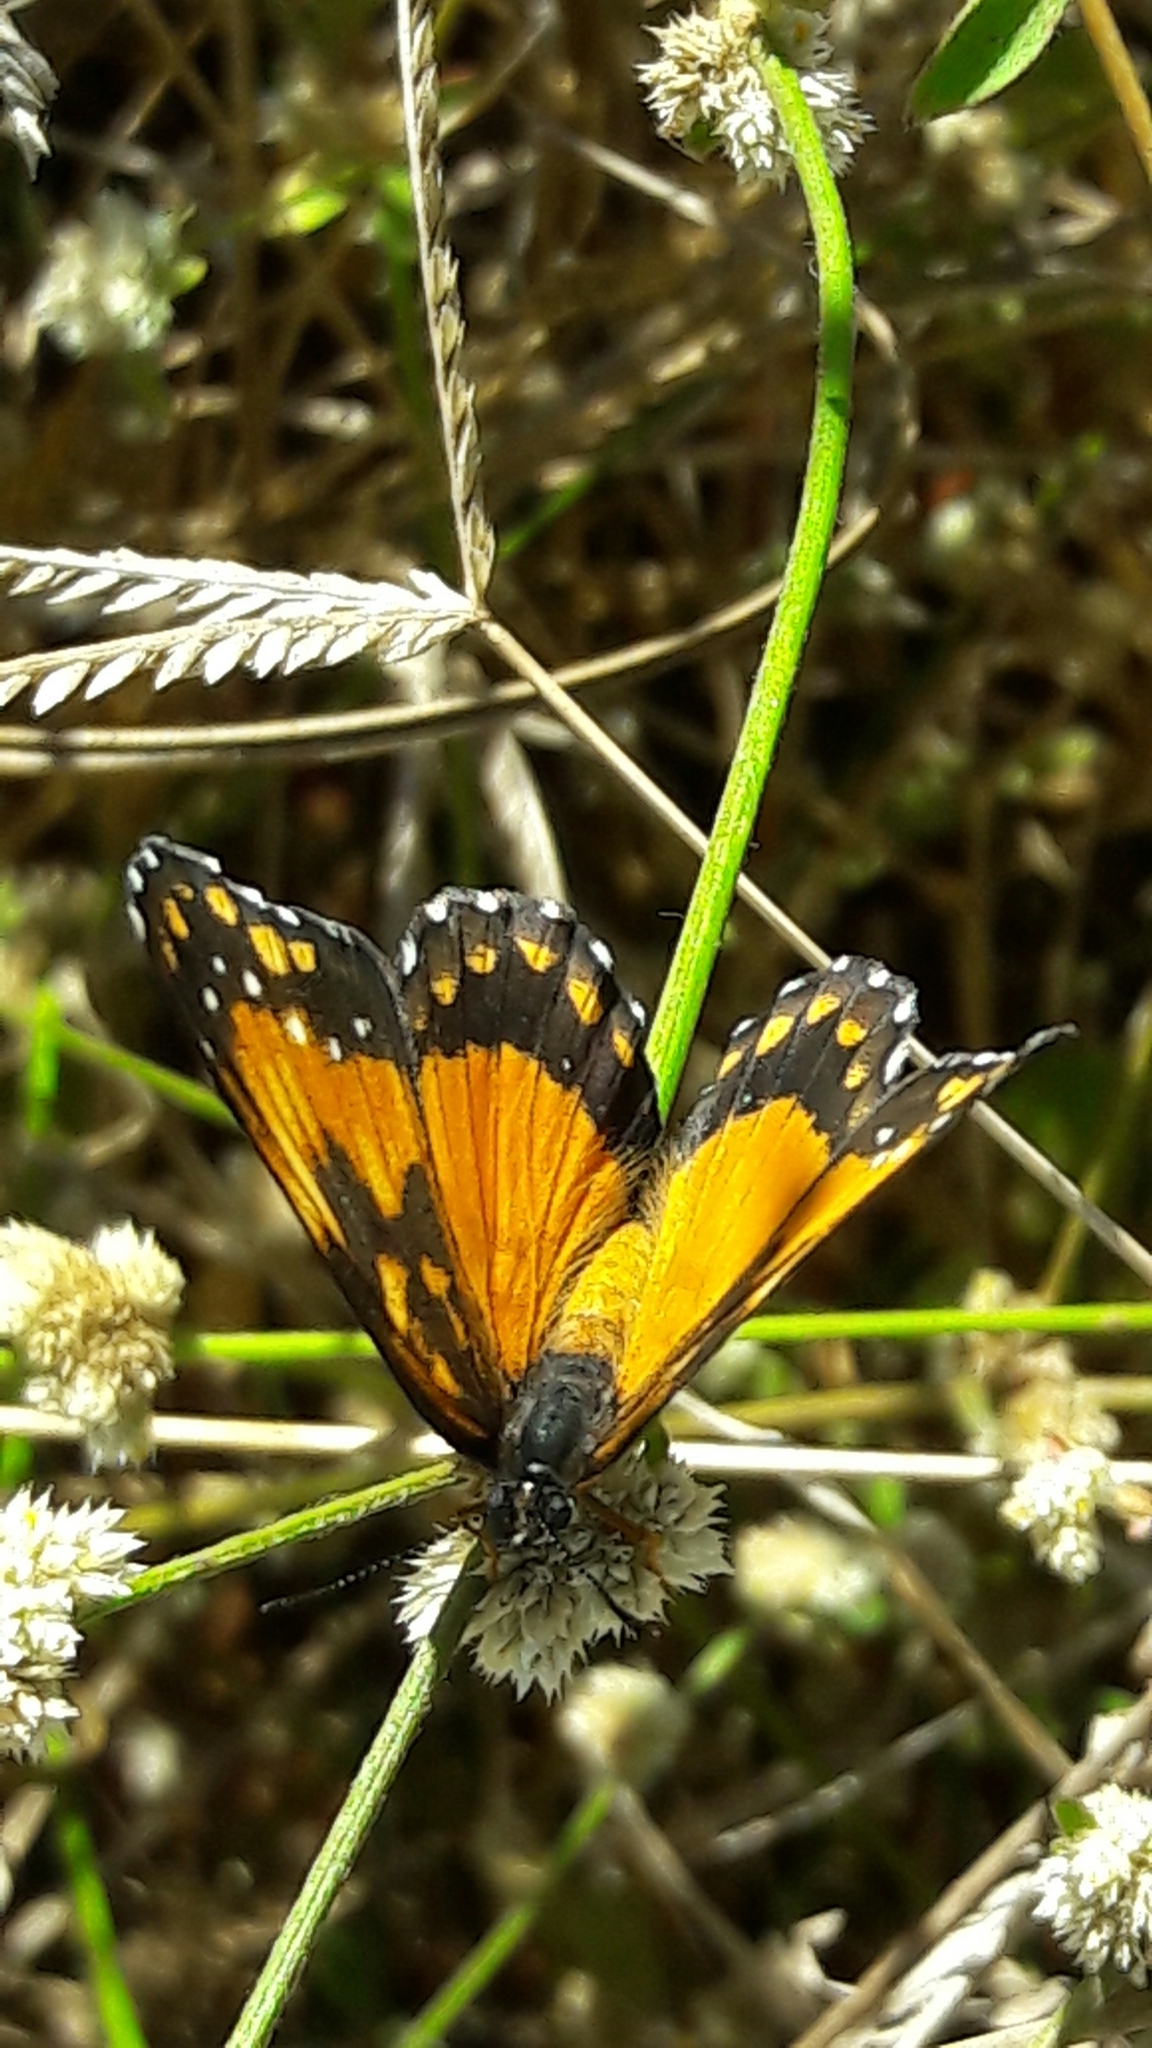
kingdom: Animalia
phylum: Arthropoda
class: Insecta
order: Lepidoptera
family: Nymphalidae
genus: Chlosyne
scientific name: Chlosyne lacinia
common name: Bordered patch
